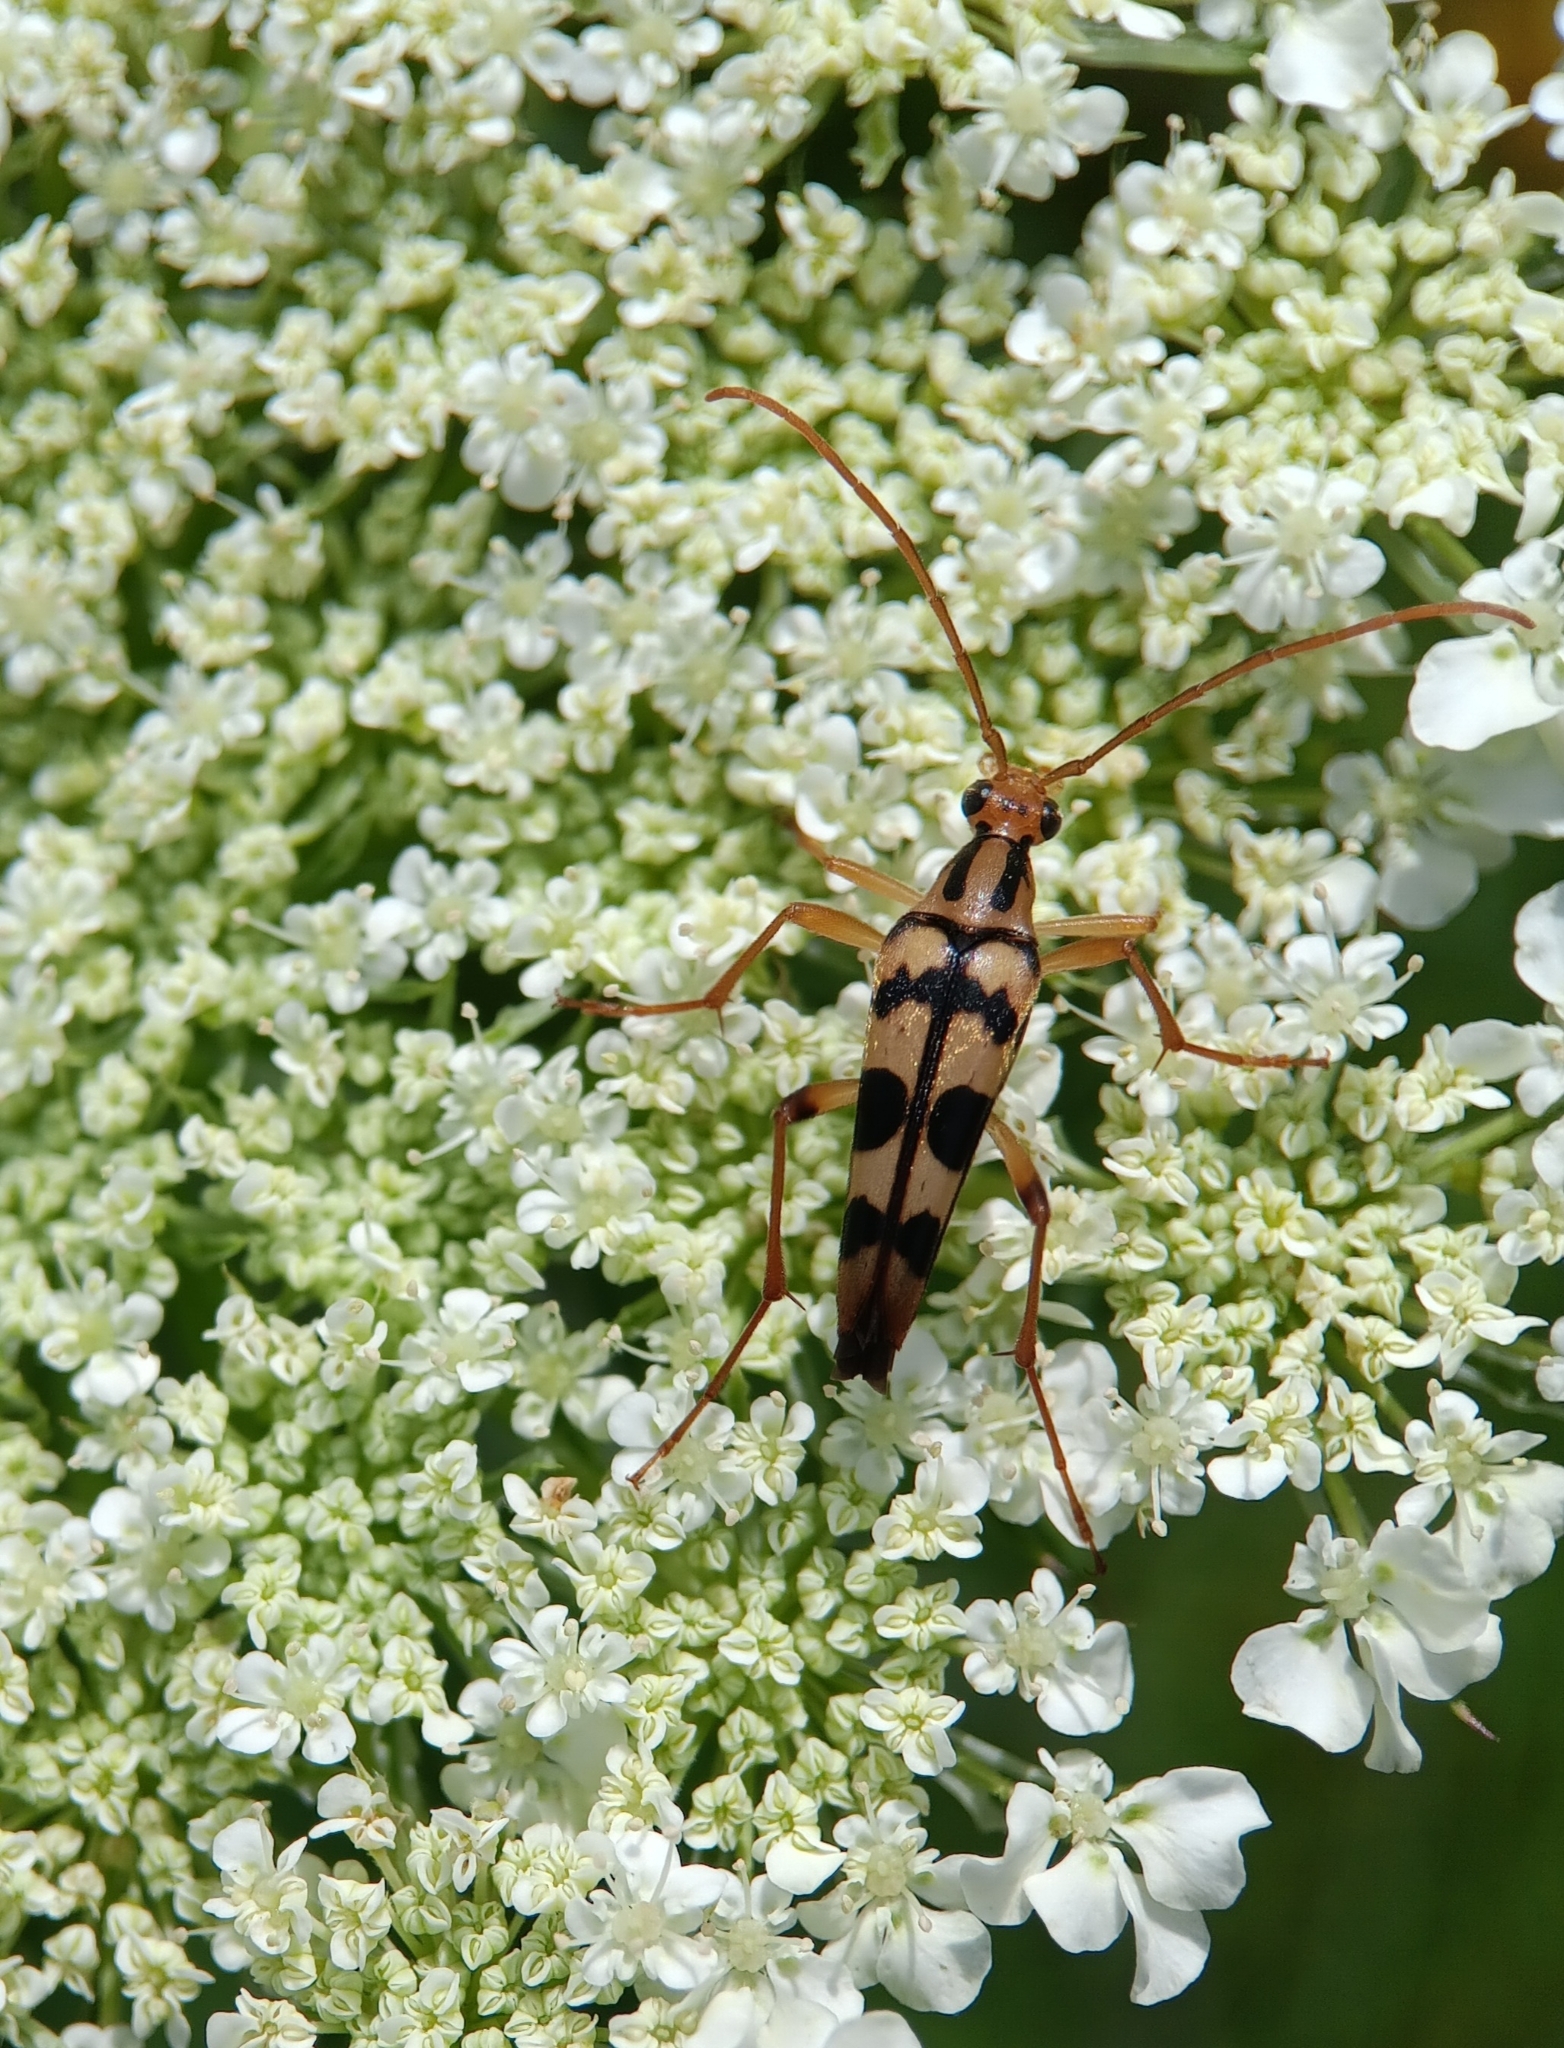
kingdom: Animalia
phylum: Arthropoda
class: Insecta
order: Coleoptera
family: Cerambycidae
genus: Strangalia
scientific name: Strangalia luteicornis
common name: Yellow-horned flower longhorn beetle
